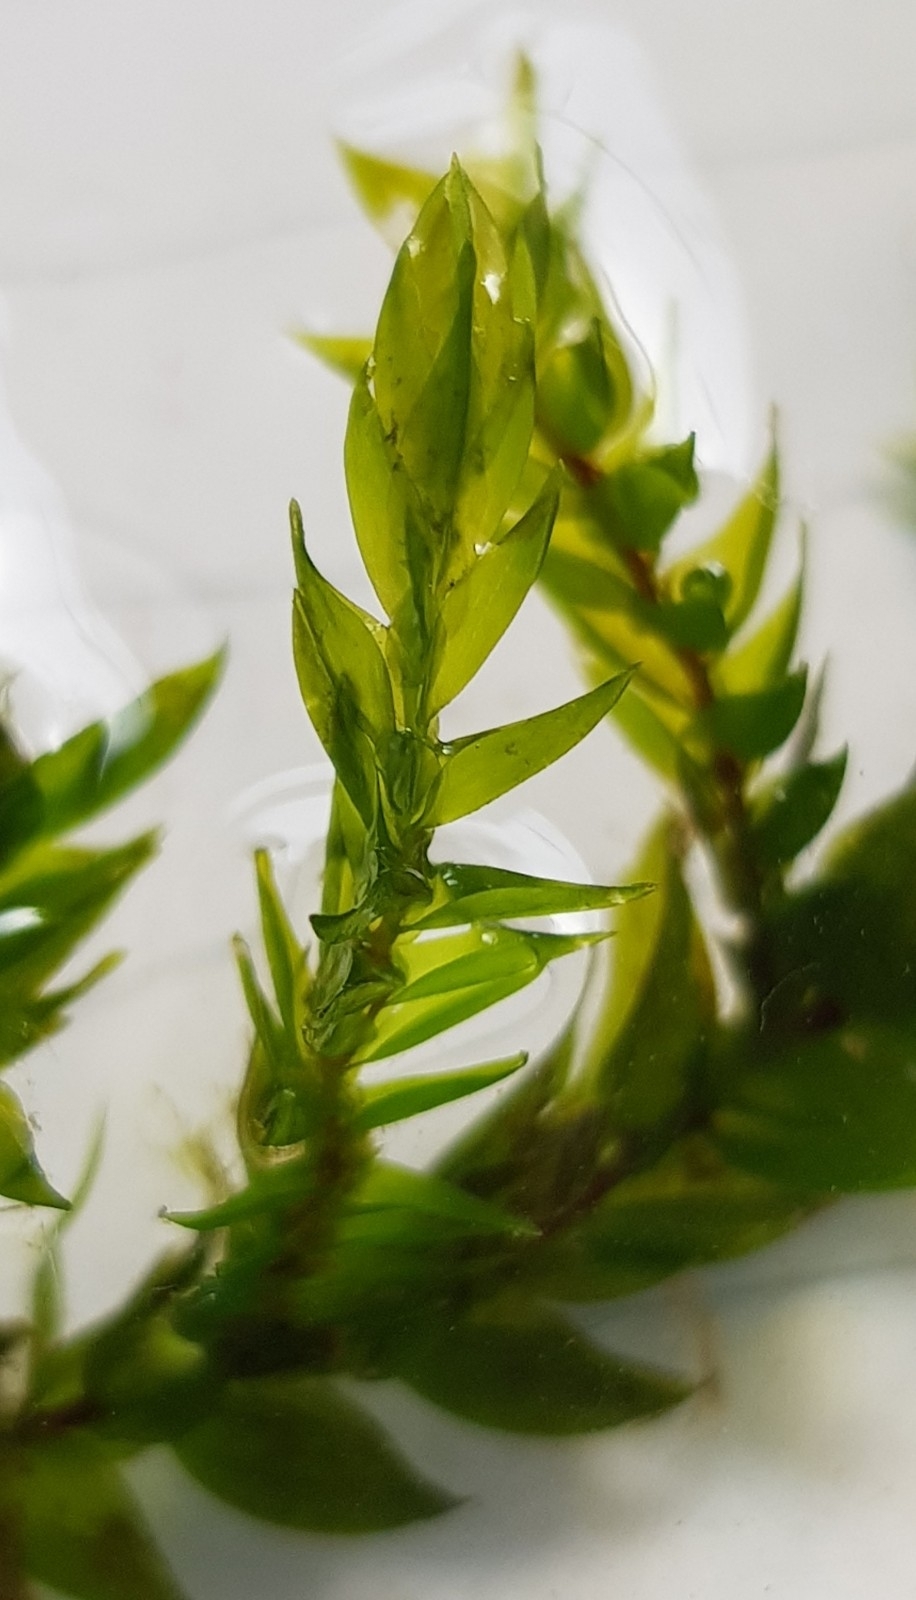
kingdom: Plantae
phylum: Bryophyta
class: Bryopsida
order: Hypnales
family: Fontinalaceae
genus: Fontinalis
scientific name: Fontinalis antipyretica
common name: Greater water-moss
